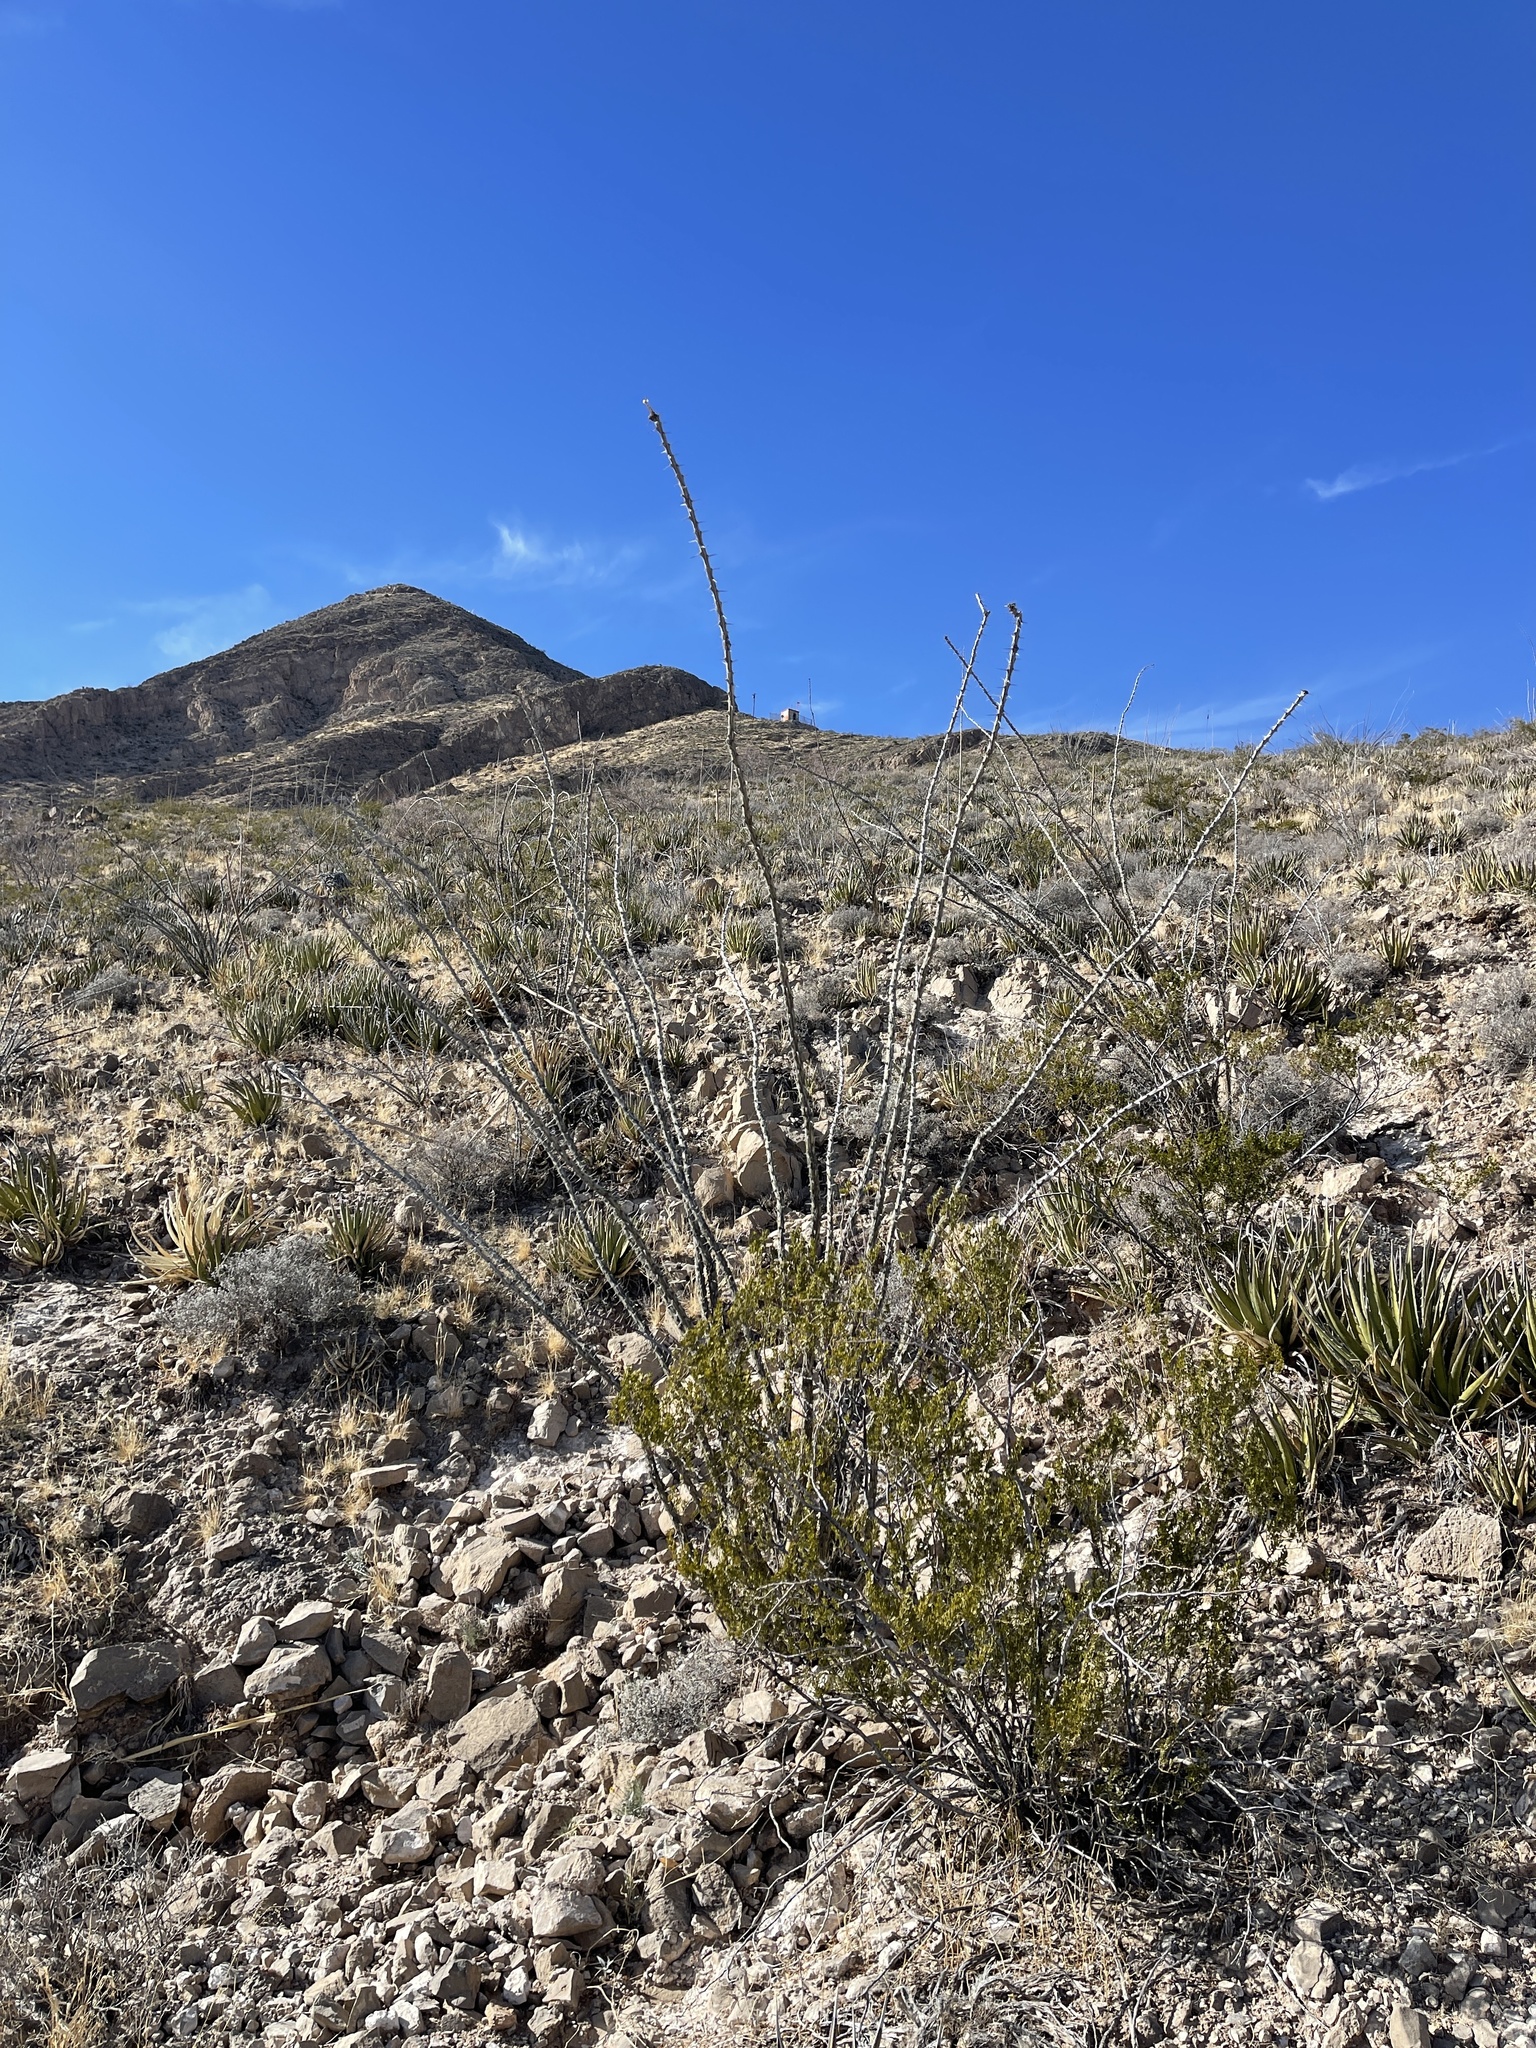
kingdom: Plantae
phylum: Tracheophyta
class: Magnoliopsida
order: Ericales
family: Fouquieriaceae
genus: Fouquieria
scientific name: Fouquieria splendens
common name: Vine-cactus
